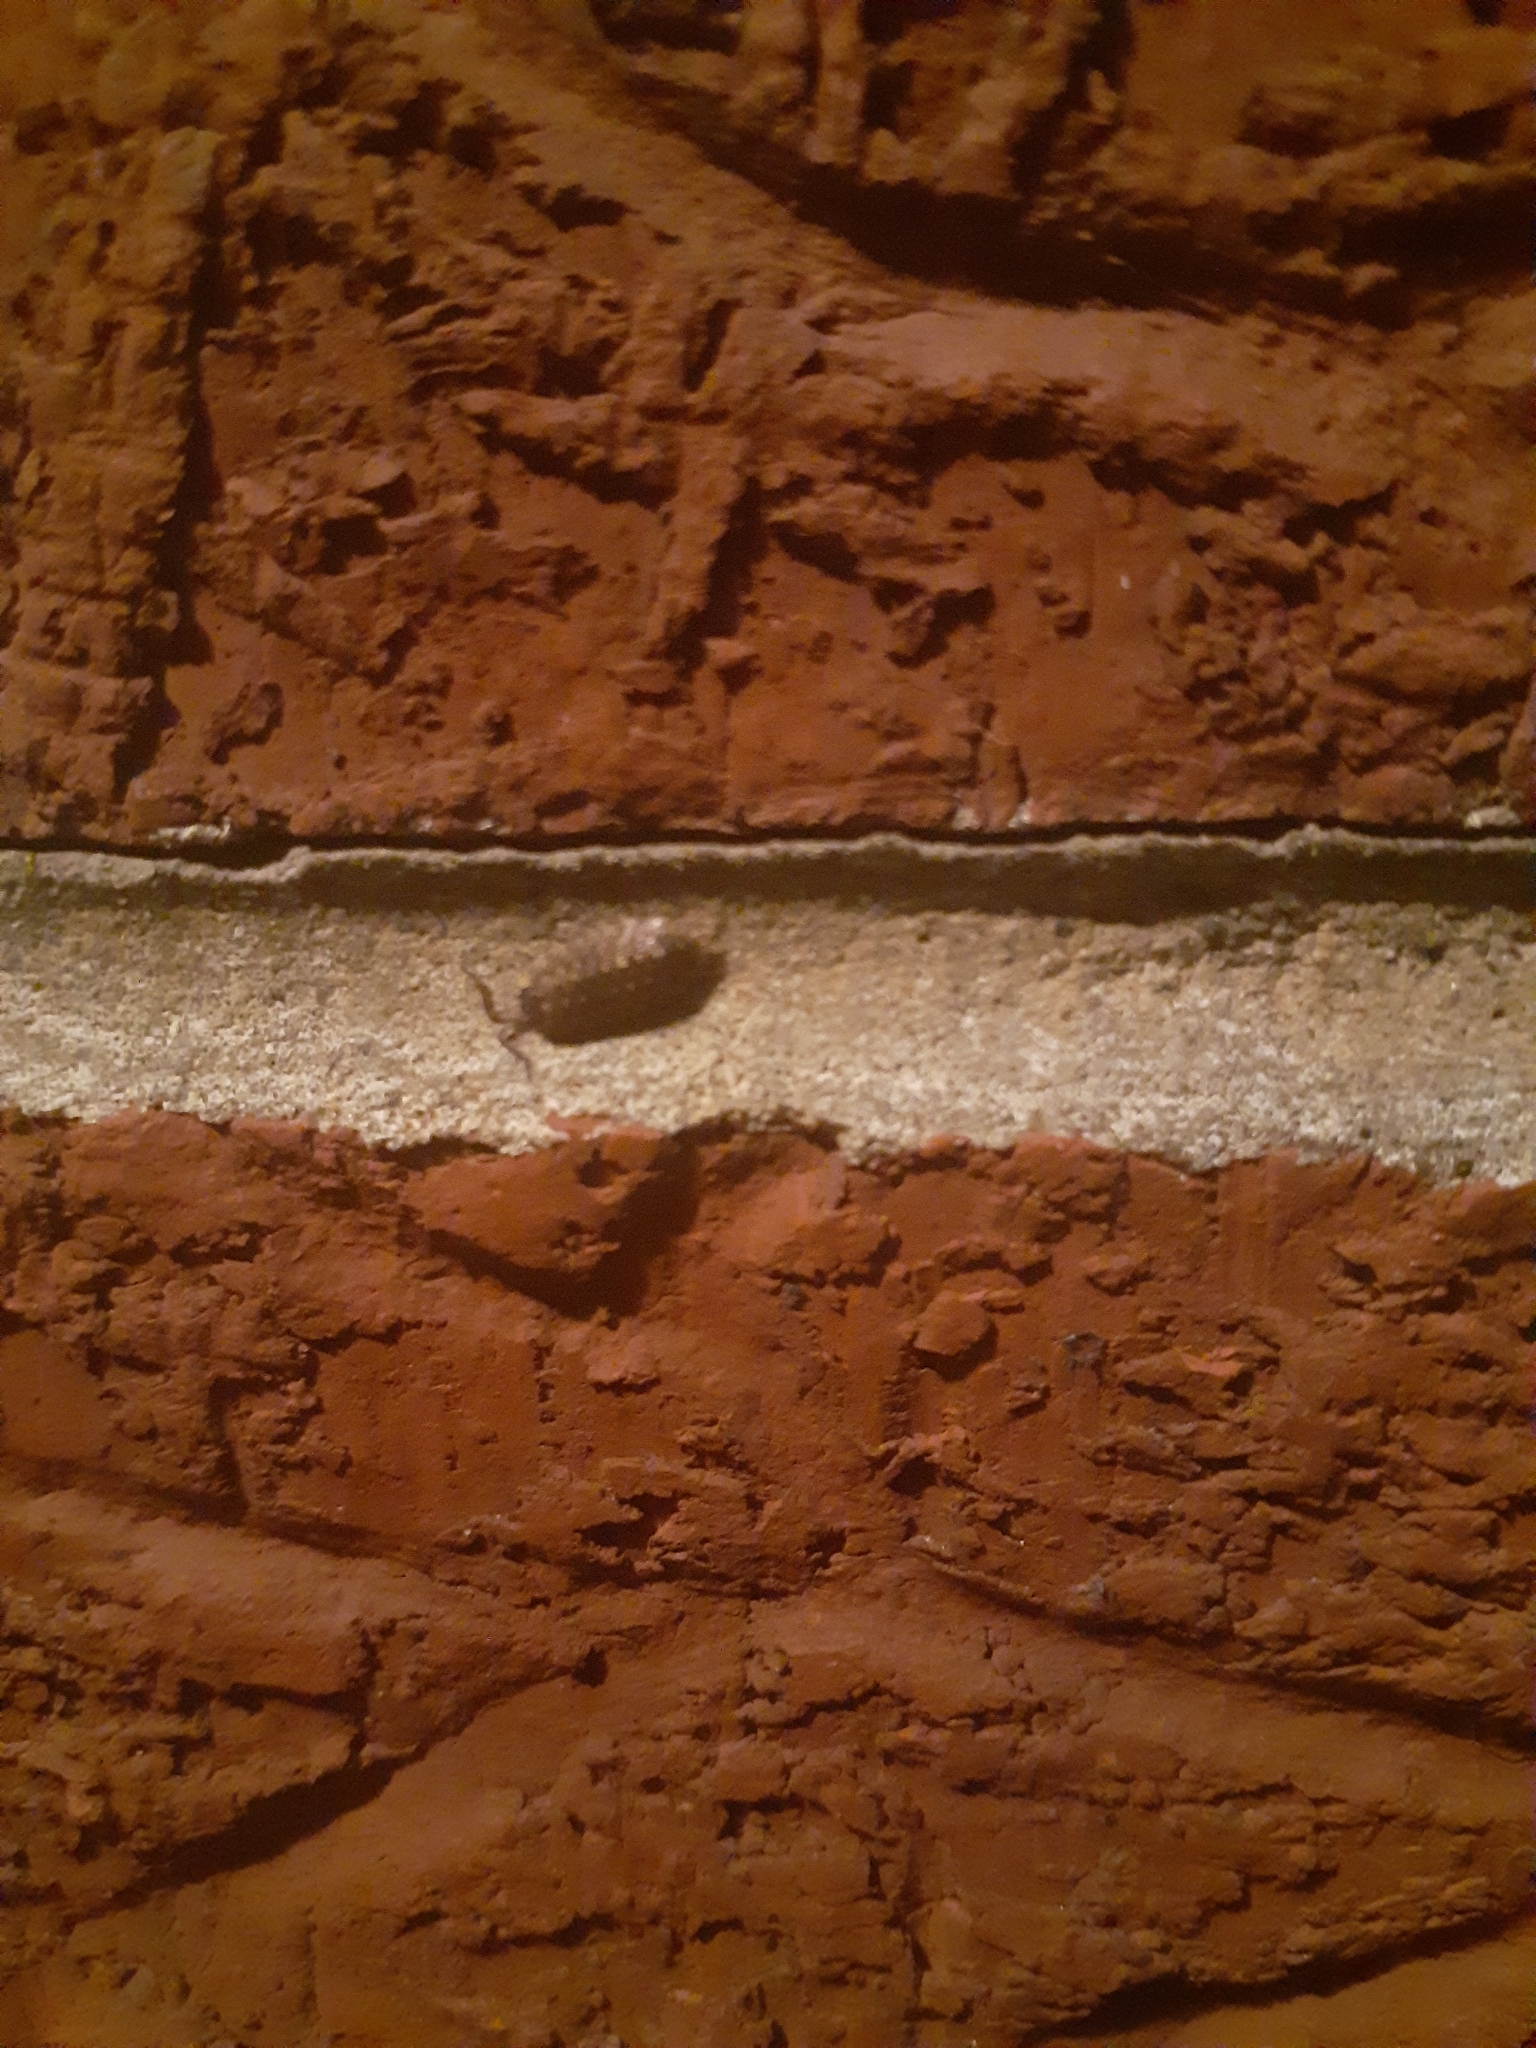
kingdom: Animalia
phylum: Arthropoda
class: Malacostraca
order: Isopoda
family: Porcellionidae
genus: Porcellio
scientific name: Porcellio spinicornis
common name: Painted woodlouse
